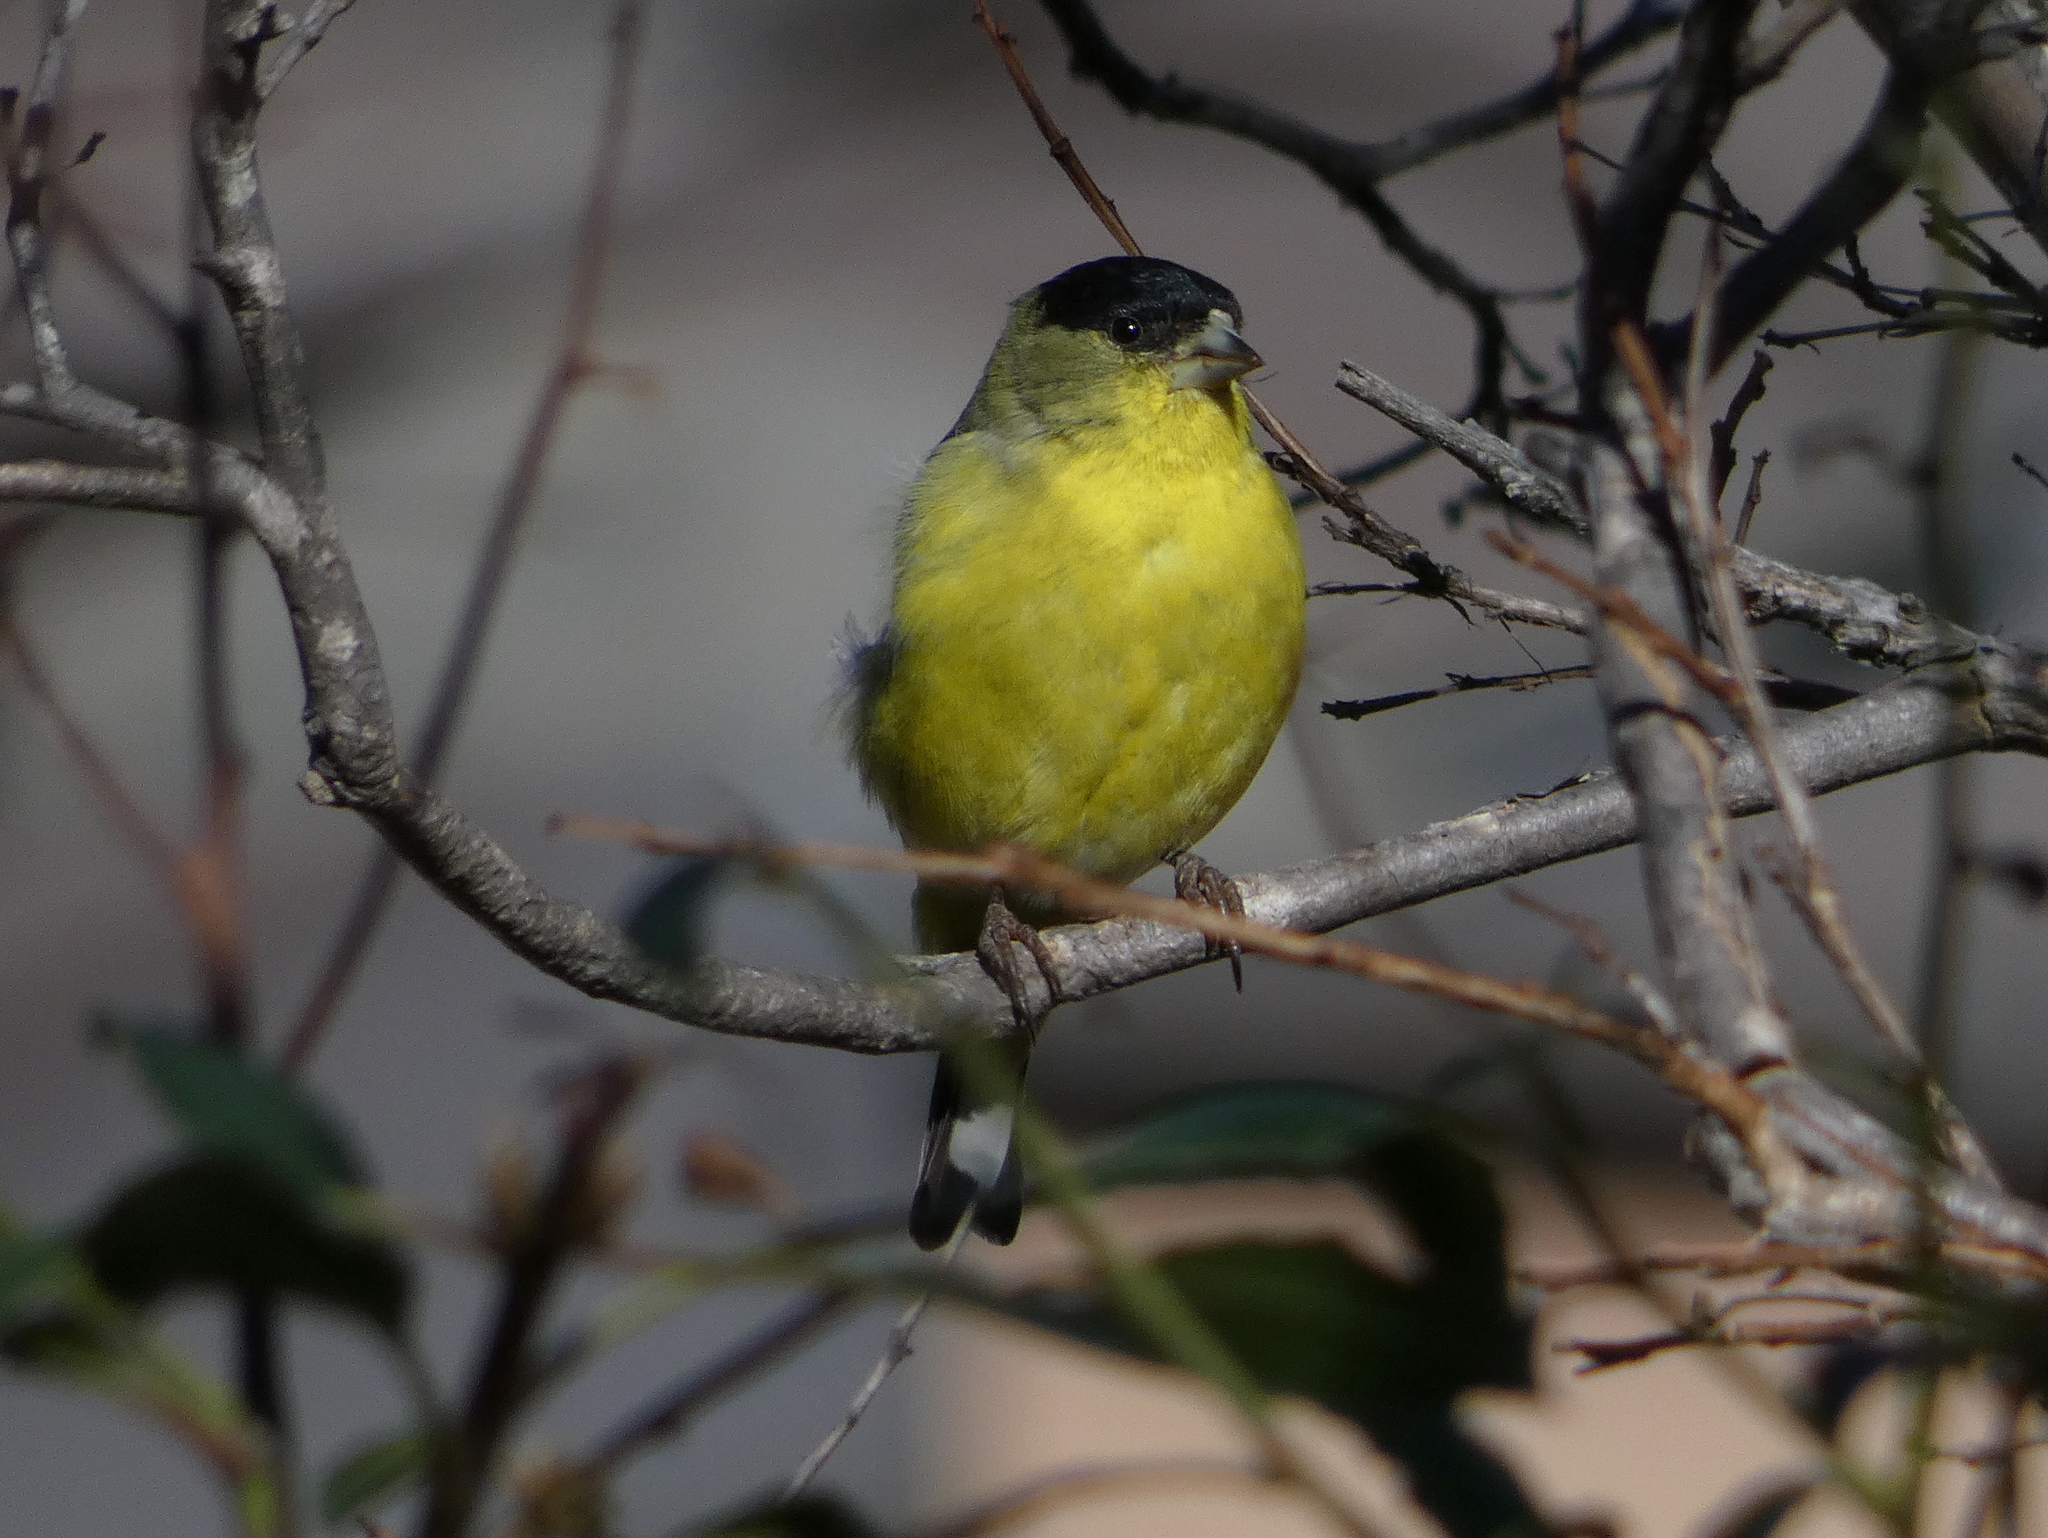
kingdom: Animalia
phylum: Chordata
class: Aves
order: Passeriformes
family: Fringillidae
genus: Spinus
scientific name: Spinus psaltria
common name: Lesser goldfinch
